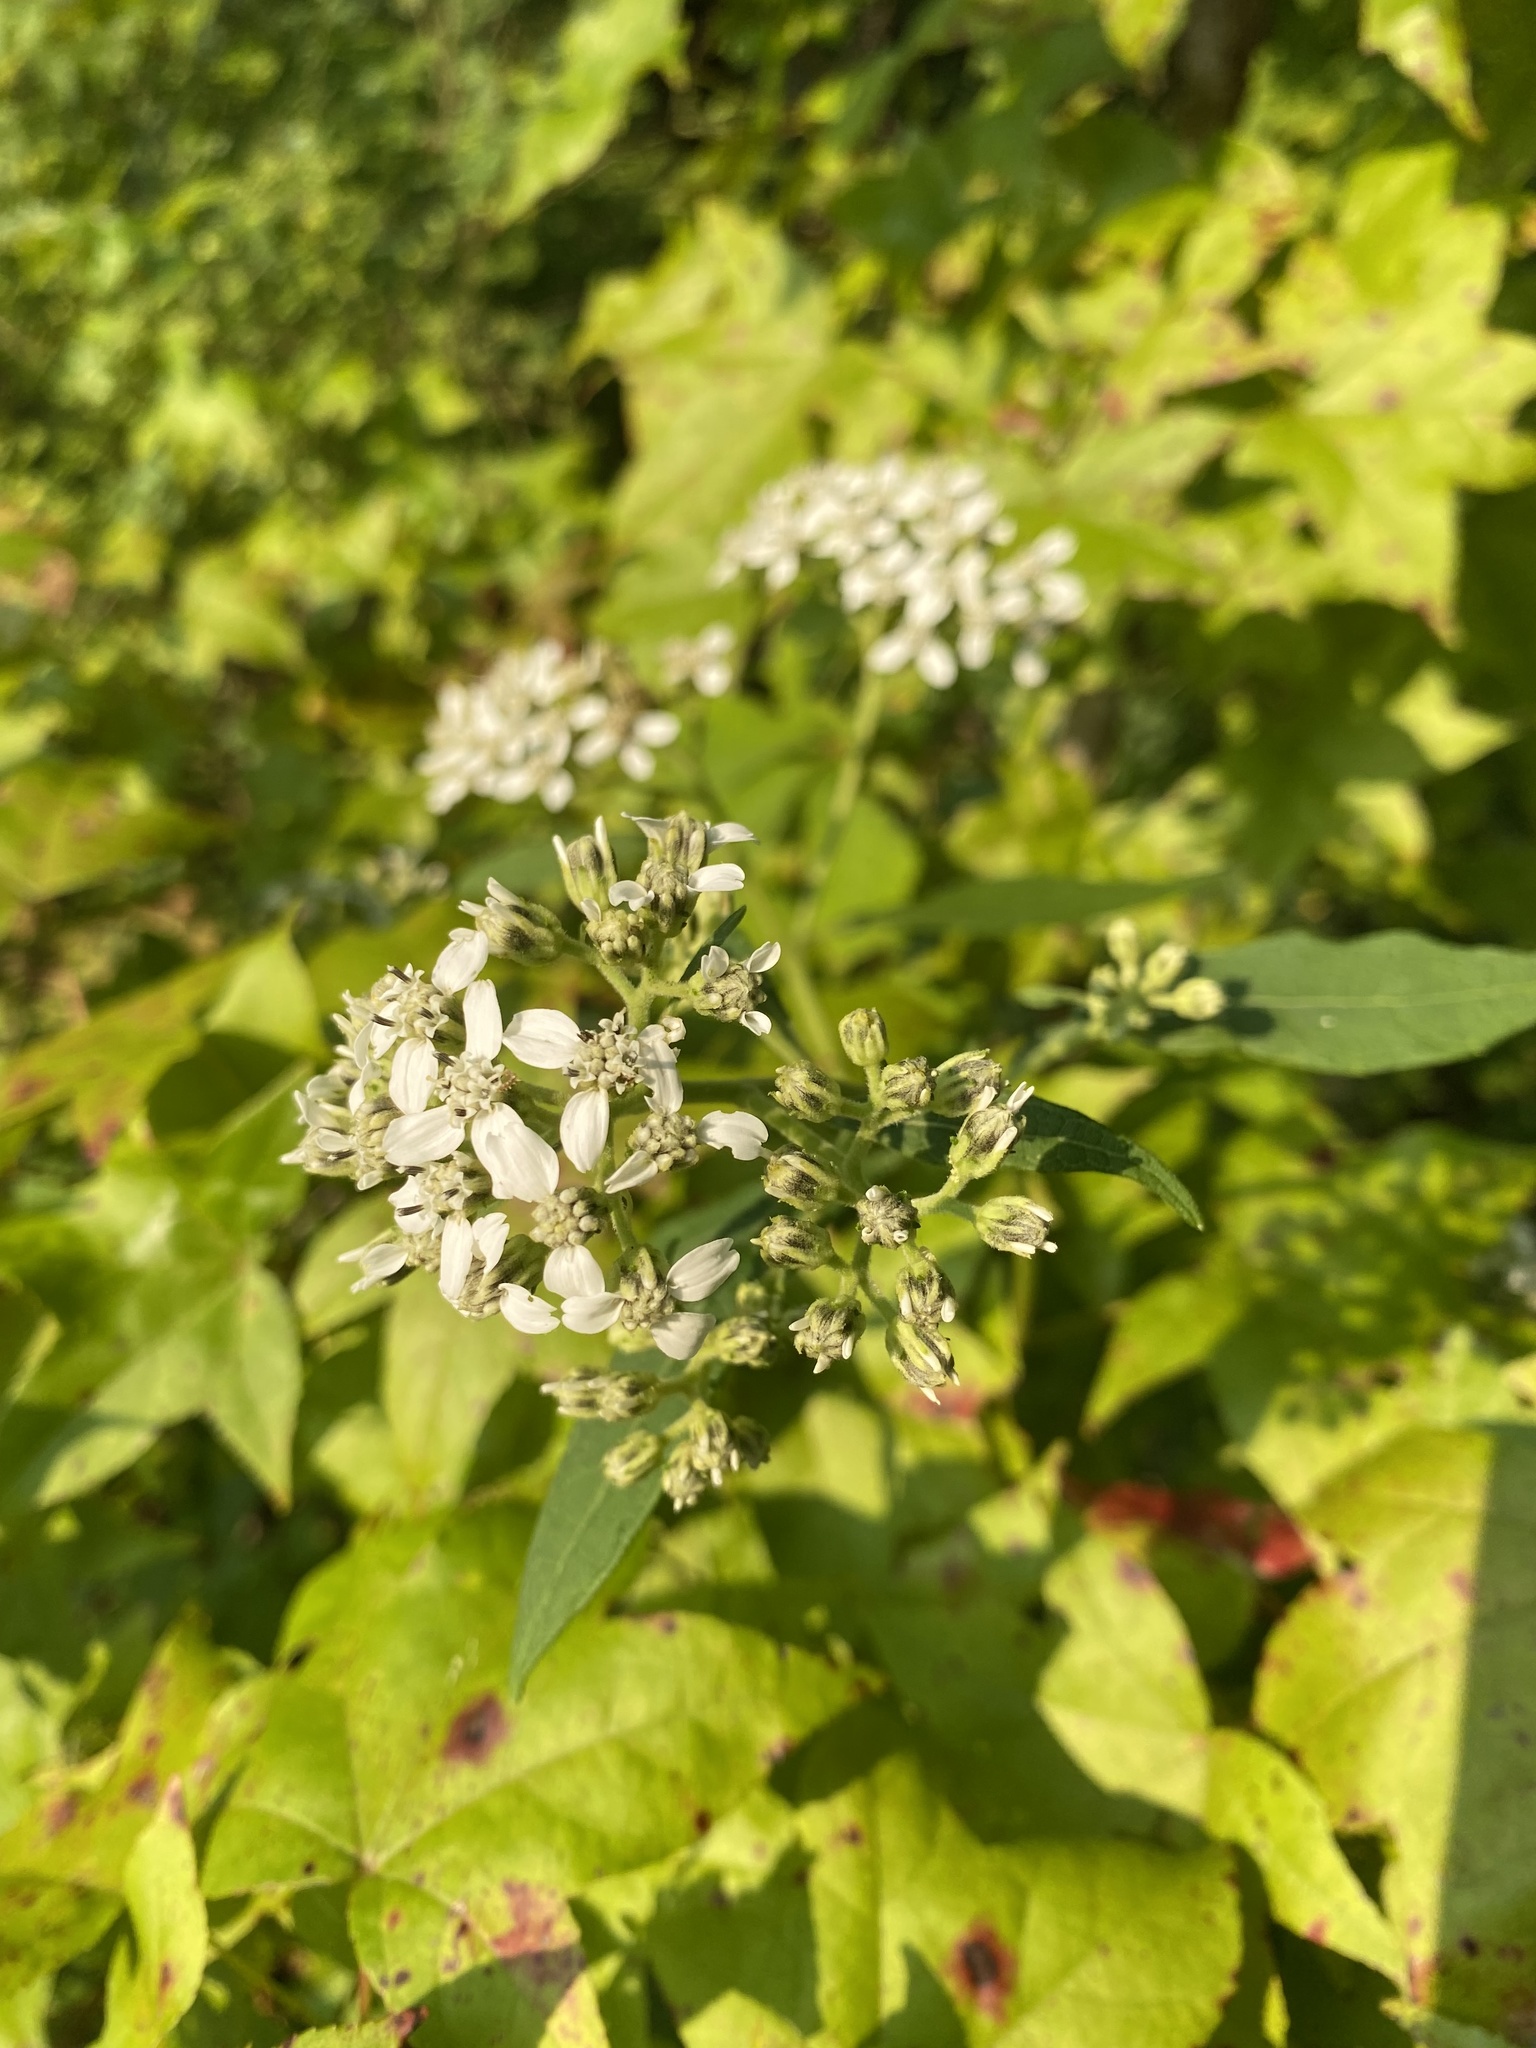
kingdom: Plantae
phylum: Tracheophyta
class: Magnoliopsida
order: Asterales
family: Asteraceae
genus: Verbesina
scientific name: Verbesina virginica
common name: Frostweed
